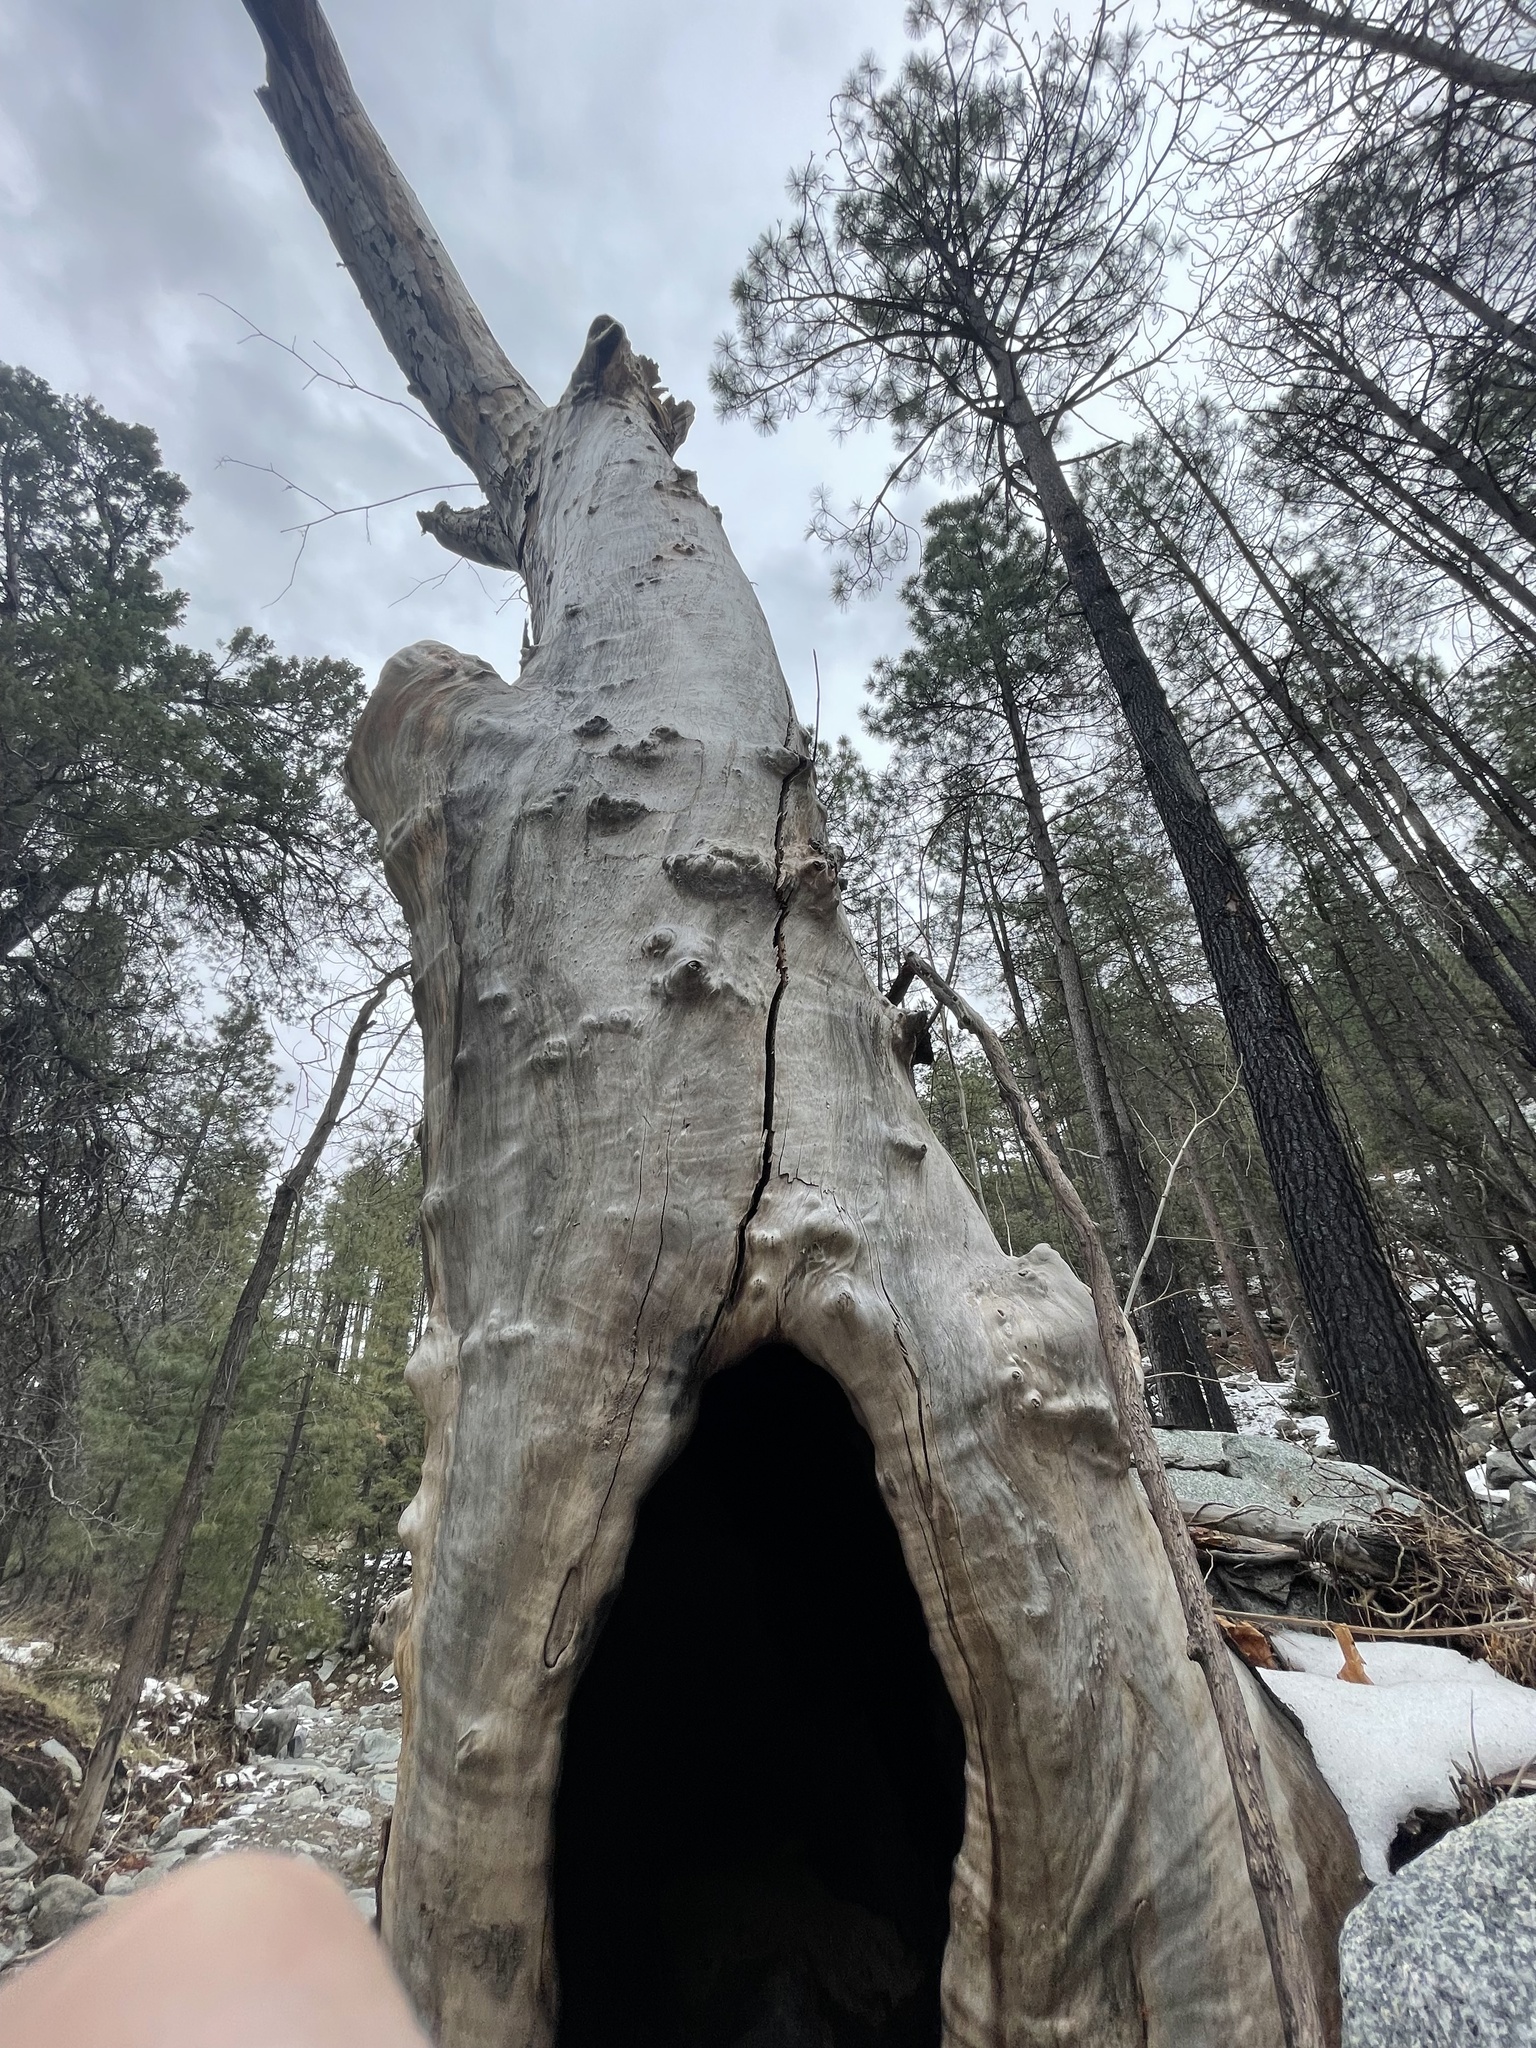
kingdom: Plantae
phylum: Tracheophyta
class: Magnoliopsida
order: Proteales
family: Platanaceae
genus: Platanus
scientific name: Platanus wrightii
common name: Arizona sycamore
